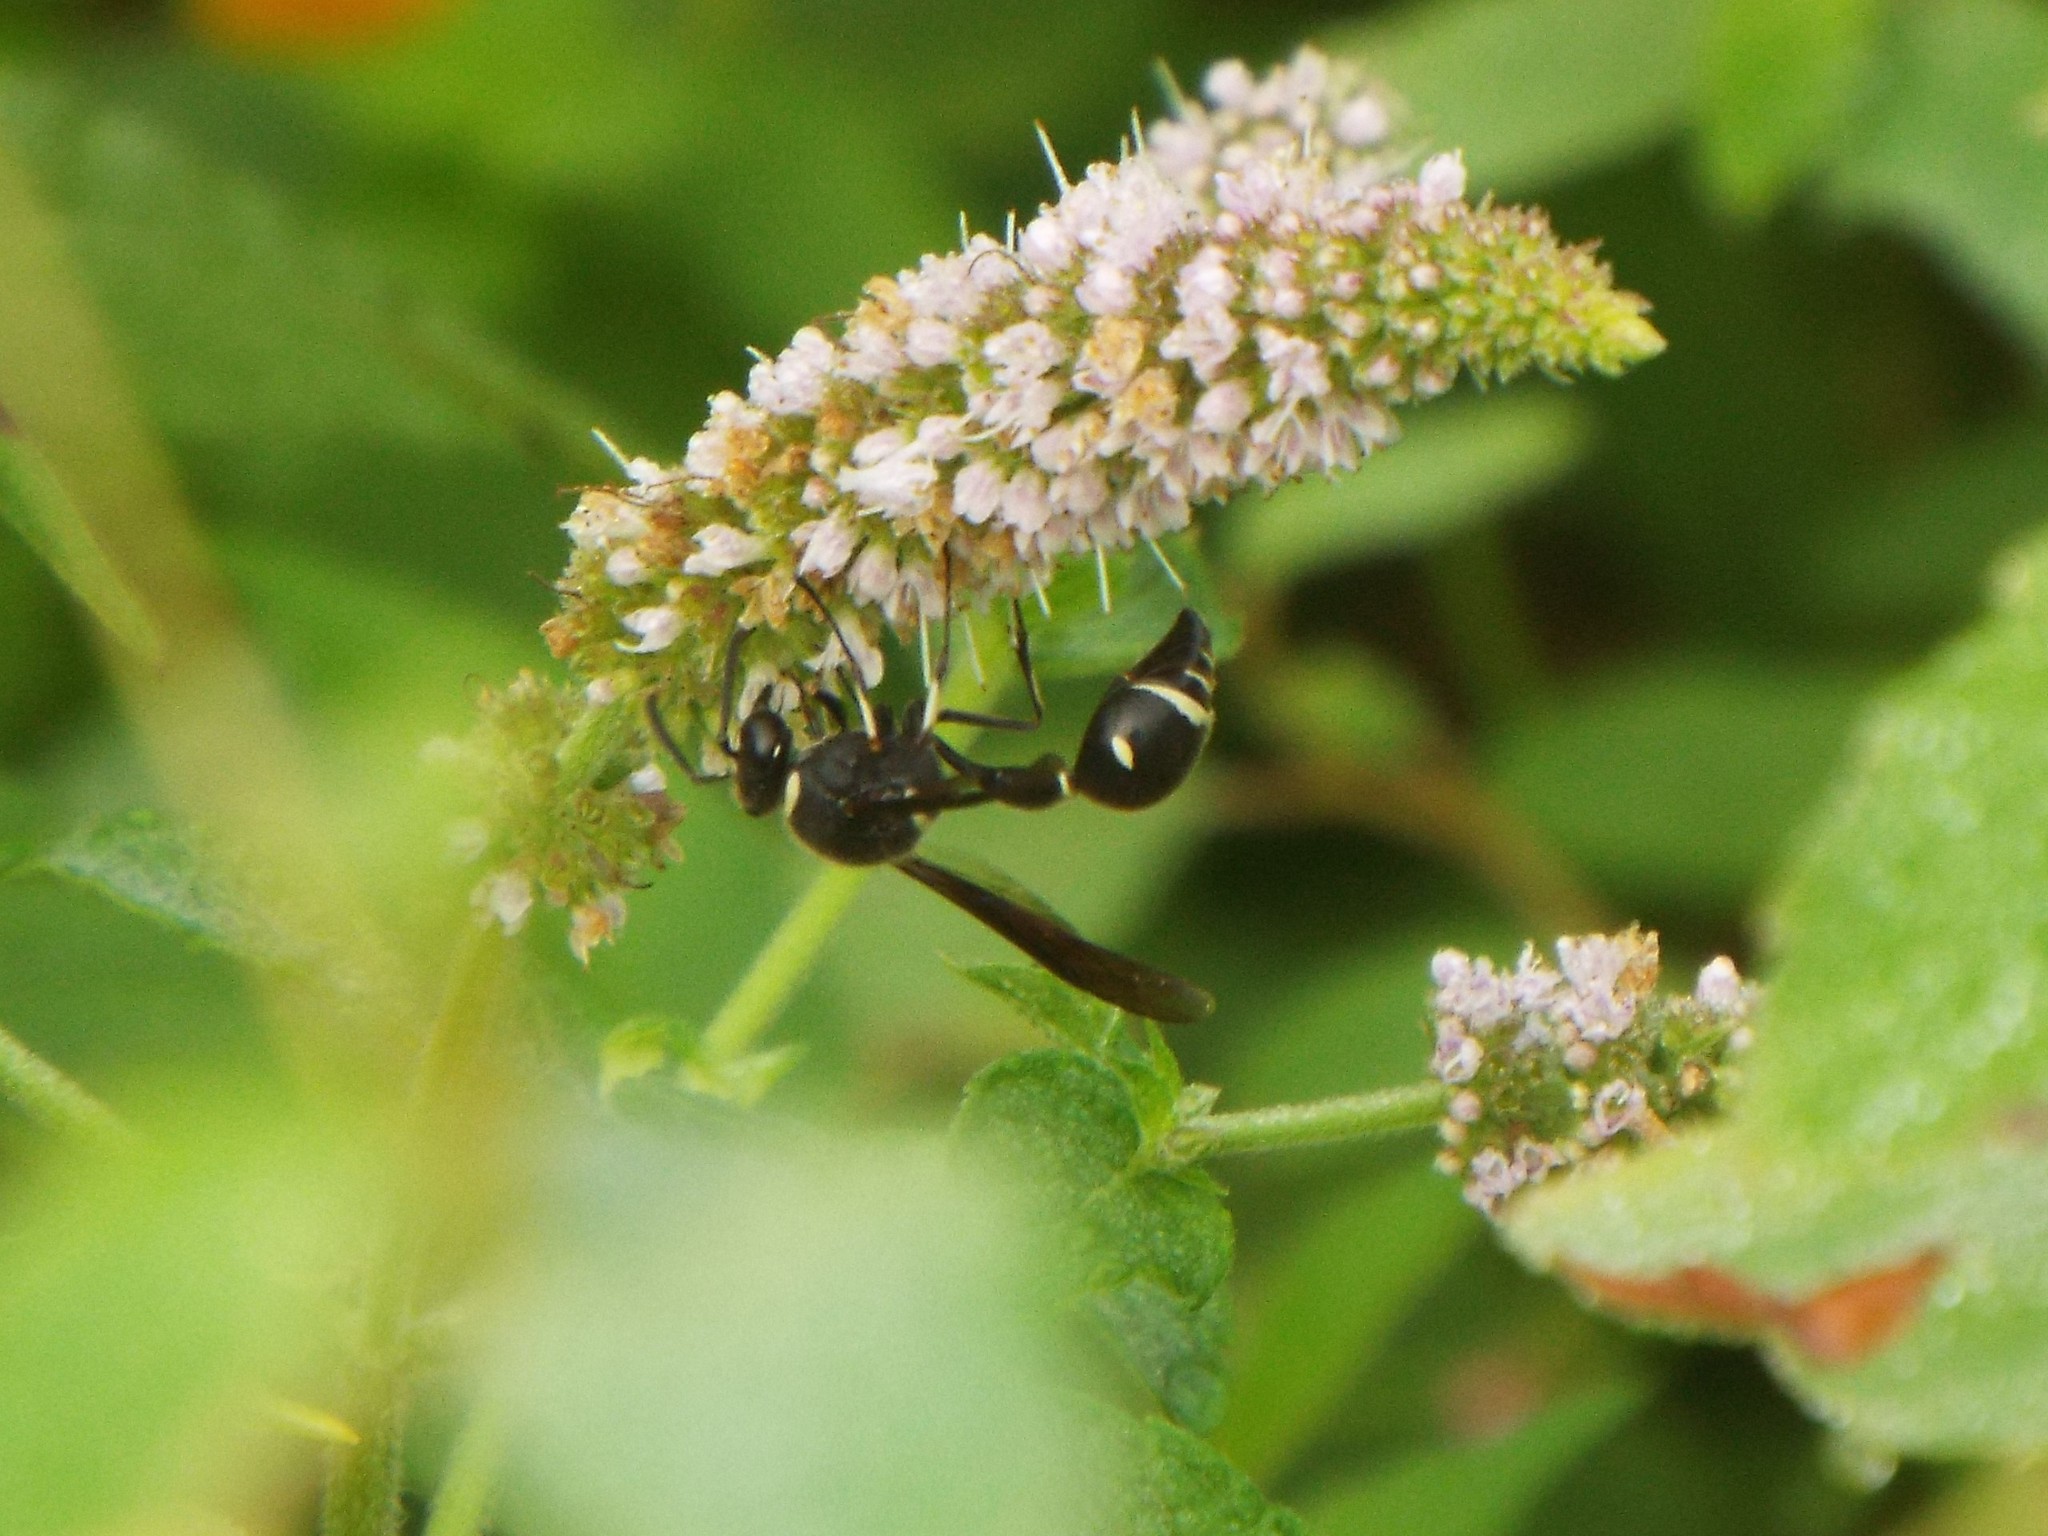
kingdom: Animalia
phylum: Arthropoda
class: Insecta
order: Hymenoptera
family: Vespidae
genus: Eumenes
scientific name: Eumenes fraternus
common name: Fraternal potter wasp
